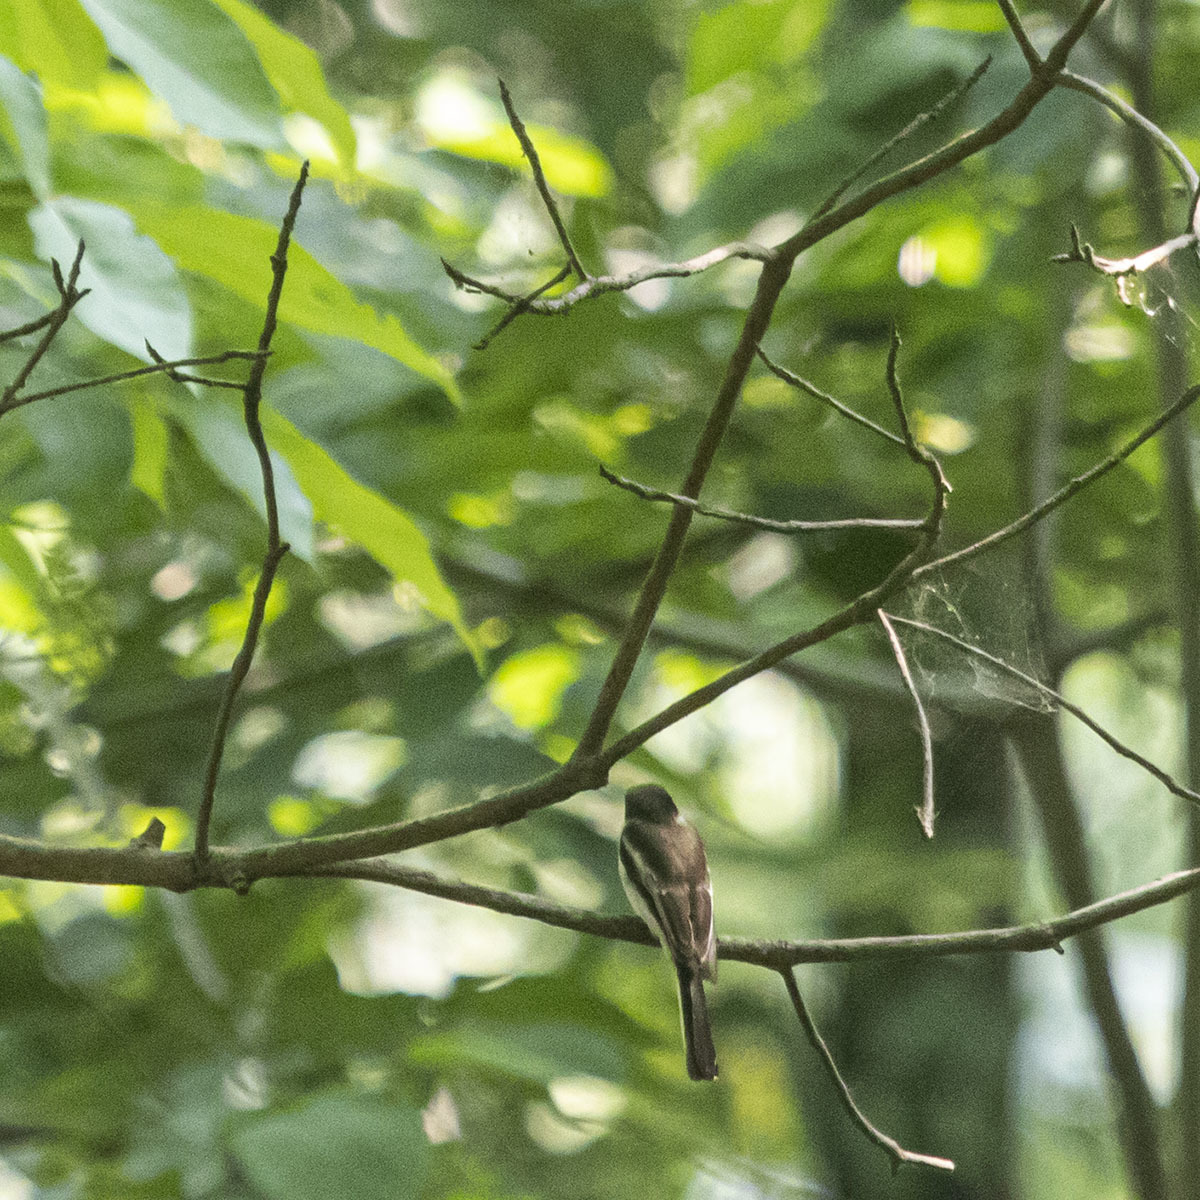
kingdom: Animalia
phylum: Chordata
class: Aves
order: Passeriformes
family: Tephrodornithidae
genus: Hemipus
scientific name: Hemipus picatus
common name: Bar-winged flycatcher-shrike
